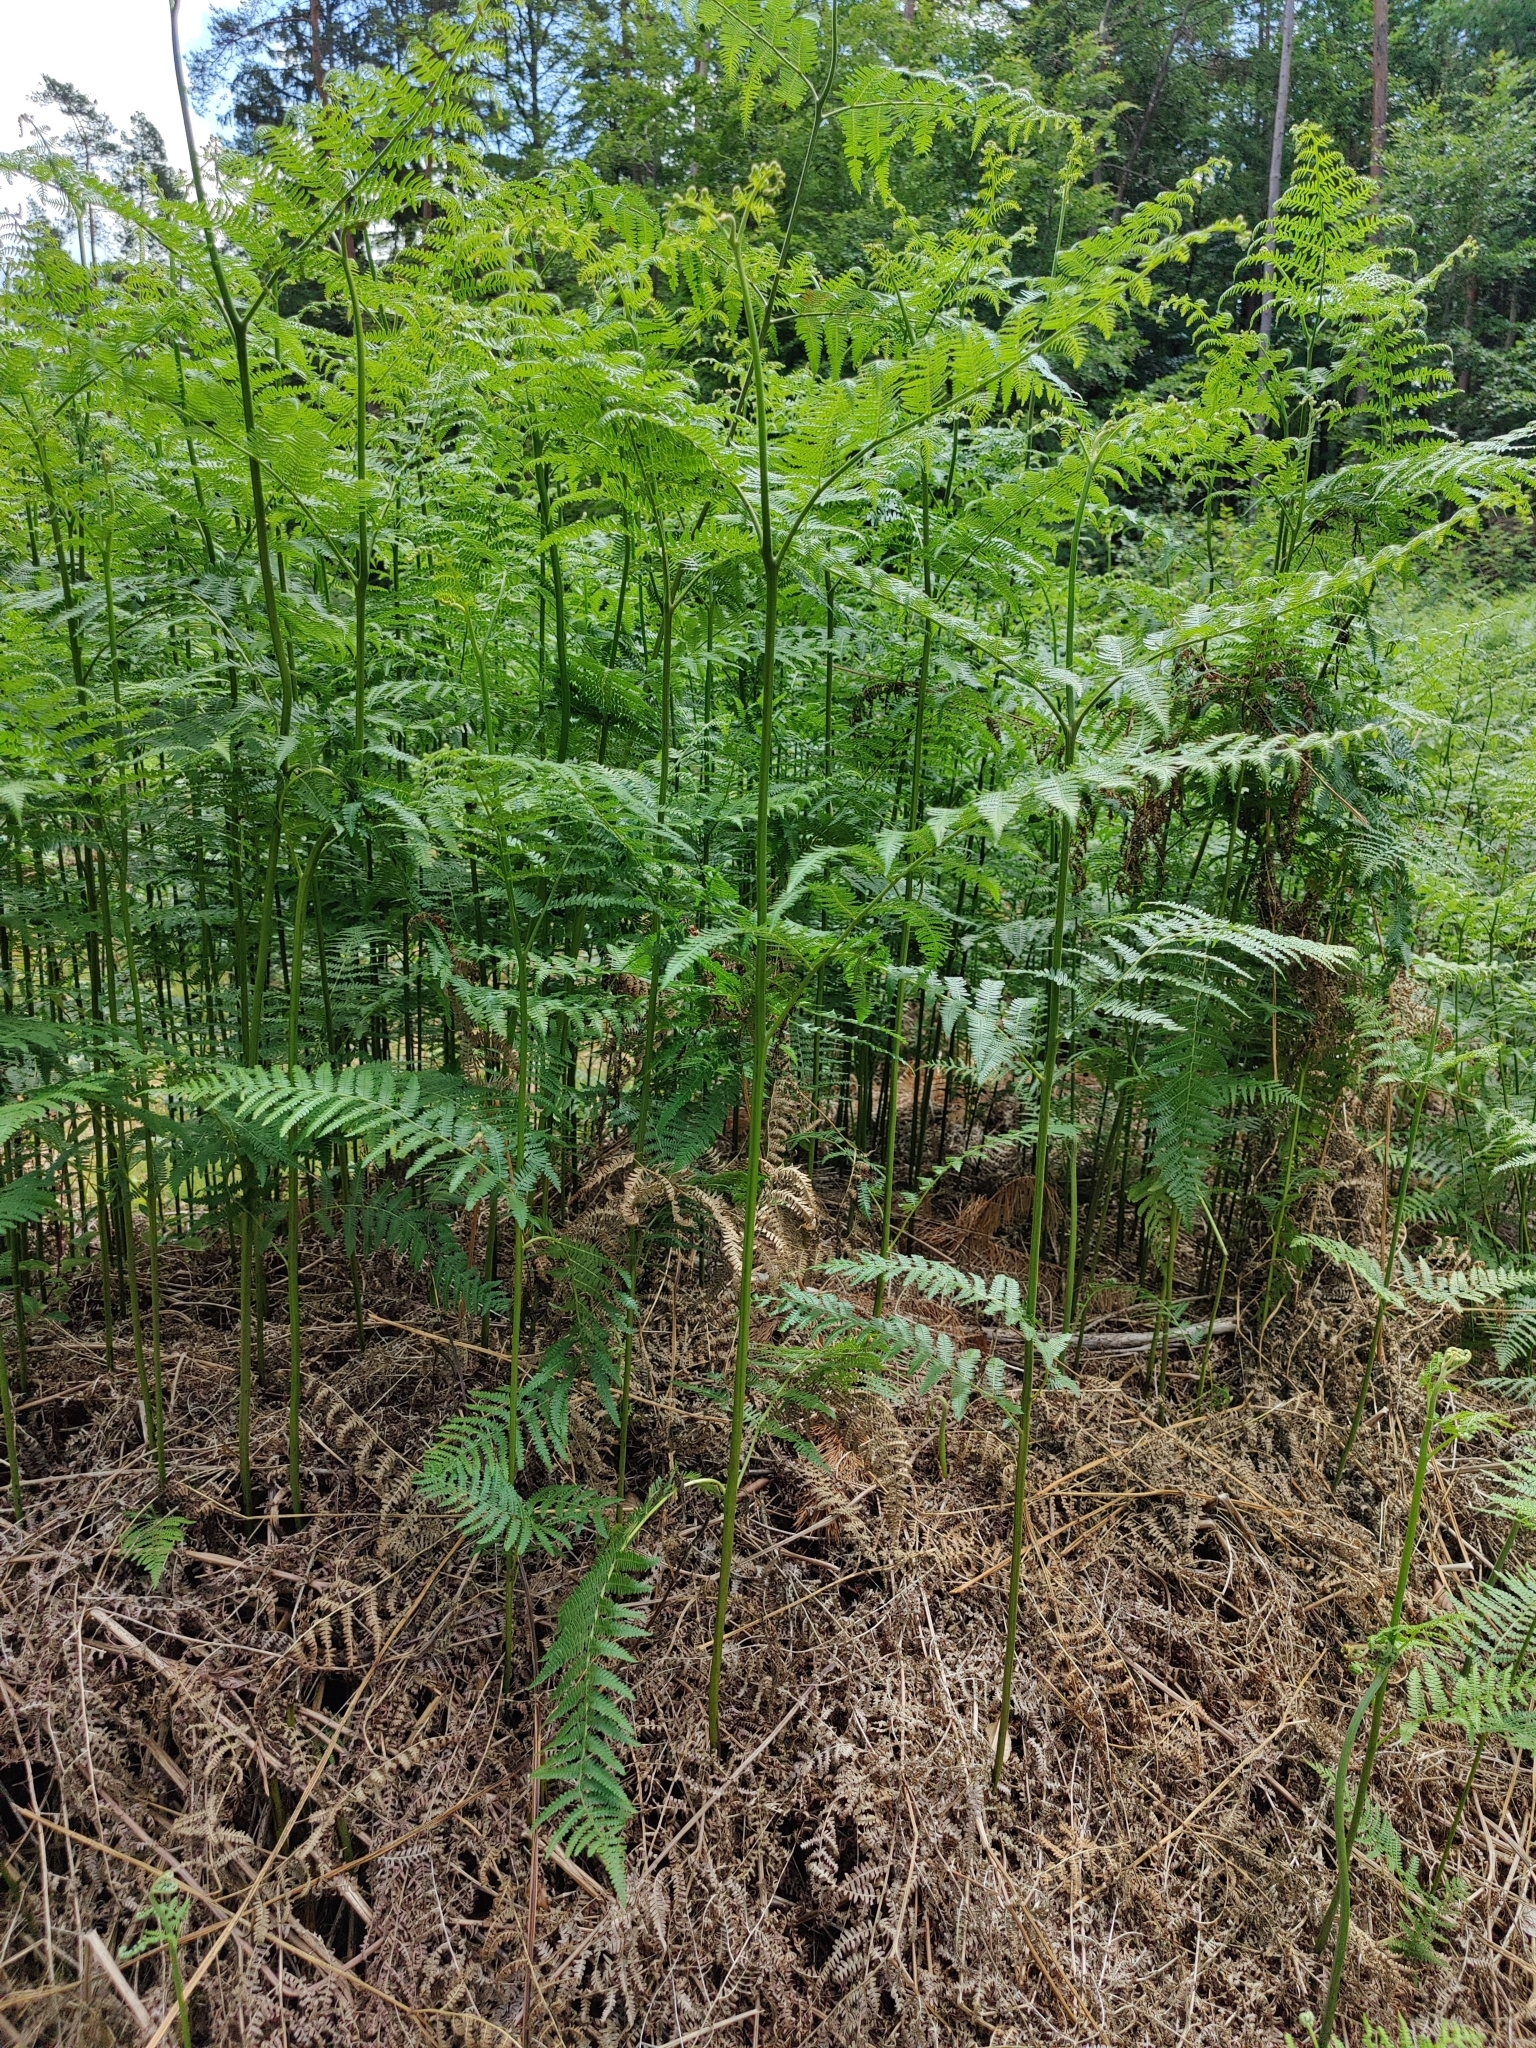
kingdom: Plantae
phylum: Tracheophyta
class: Polypodiopsida
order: Polypodiales
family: Dennstaedtiaceae
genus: Pteridium
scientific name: Pteridium aquilinum
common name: Bracken
